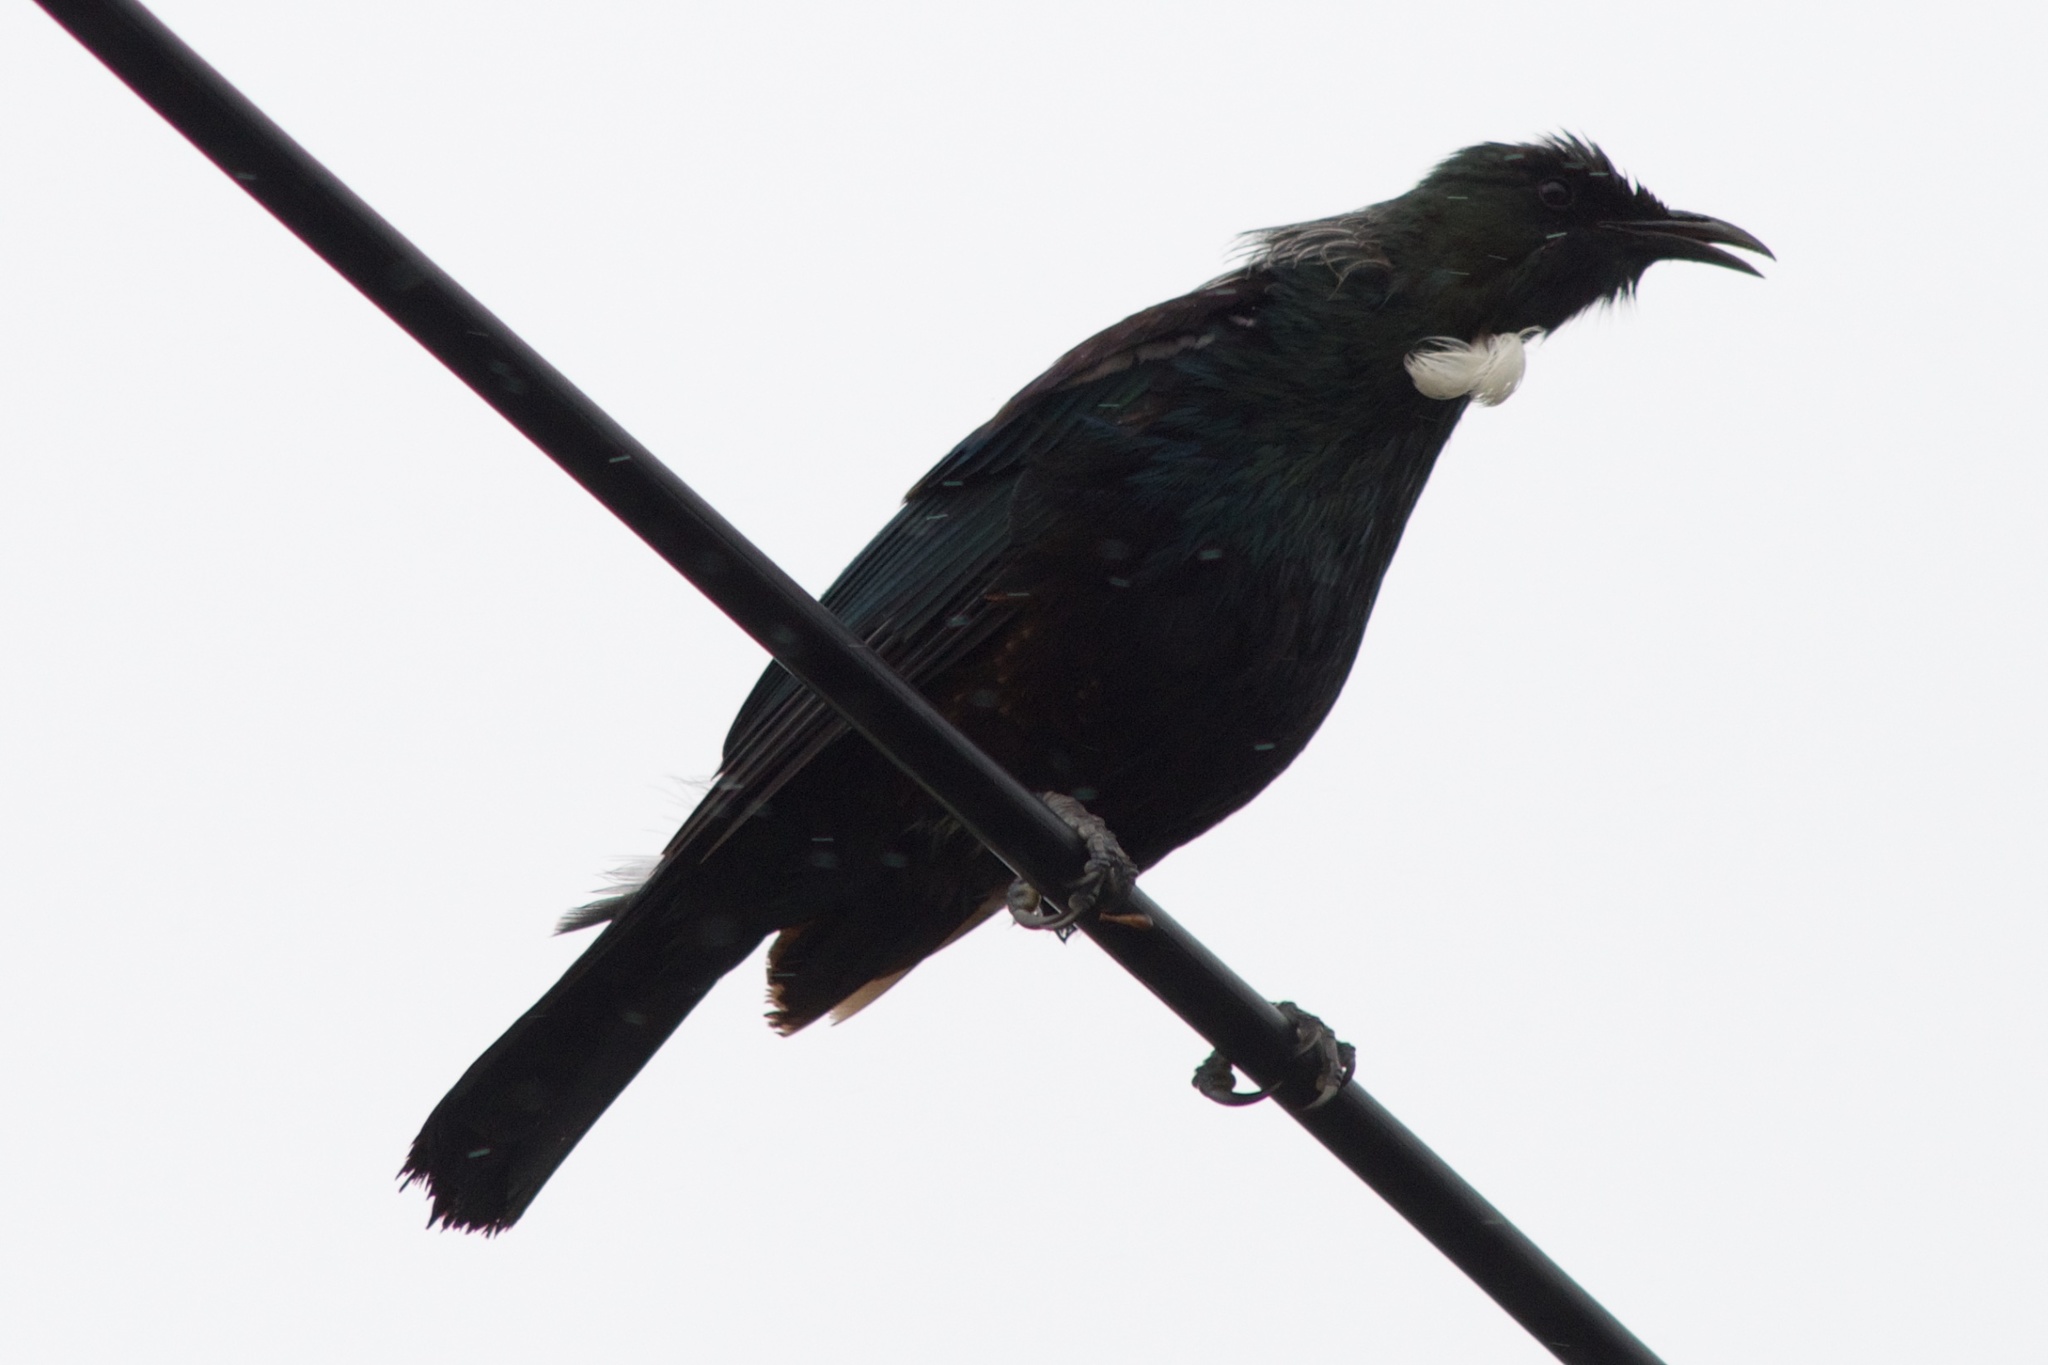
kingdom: Animalia
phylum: Chordata
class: Aves
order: Passeriformes
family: Meliphagidae
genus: Prosthemadera
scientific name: Prosthemadera novaeseelandiae
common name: Tui
